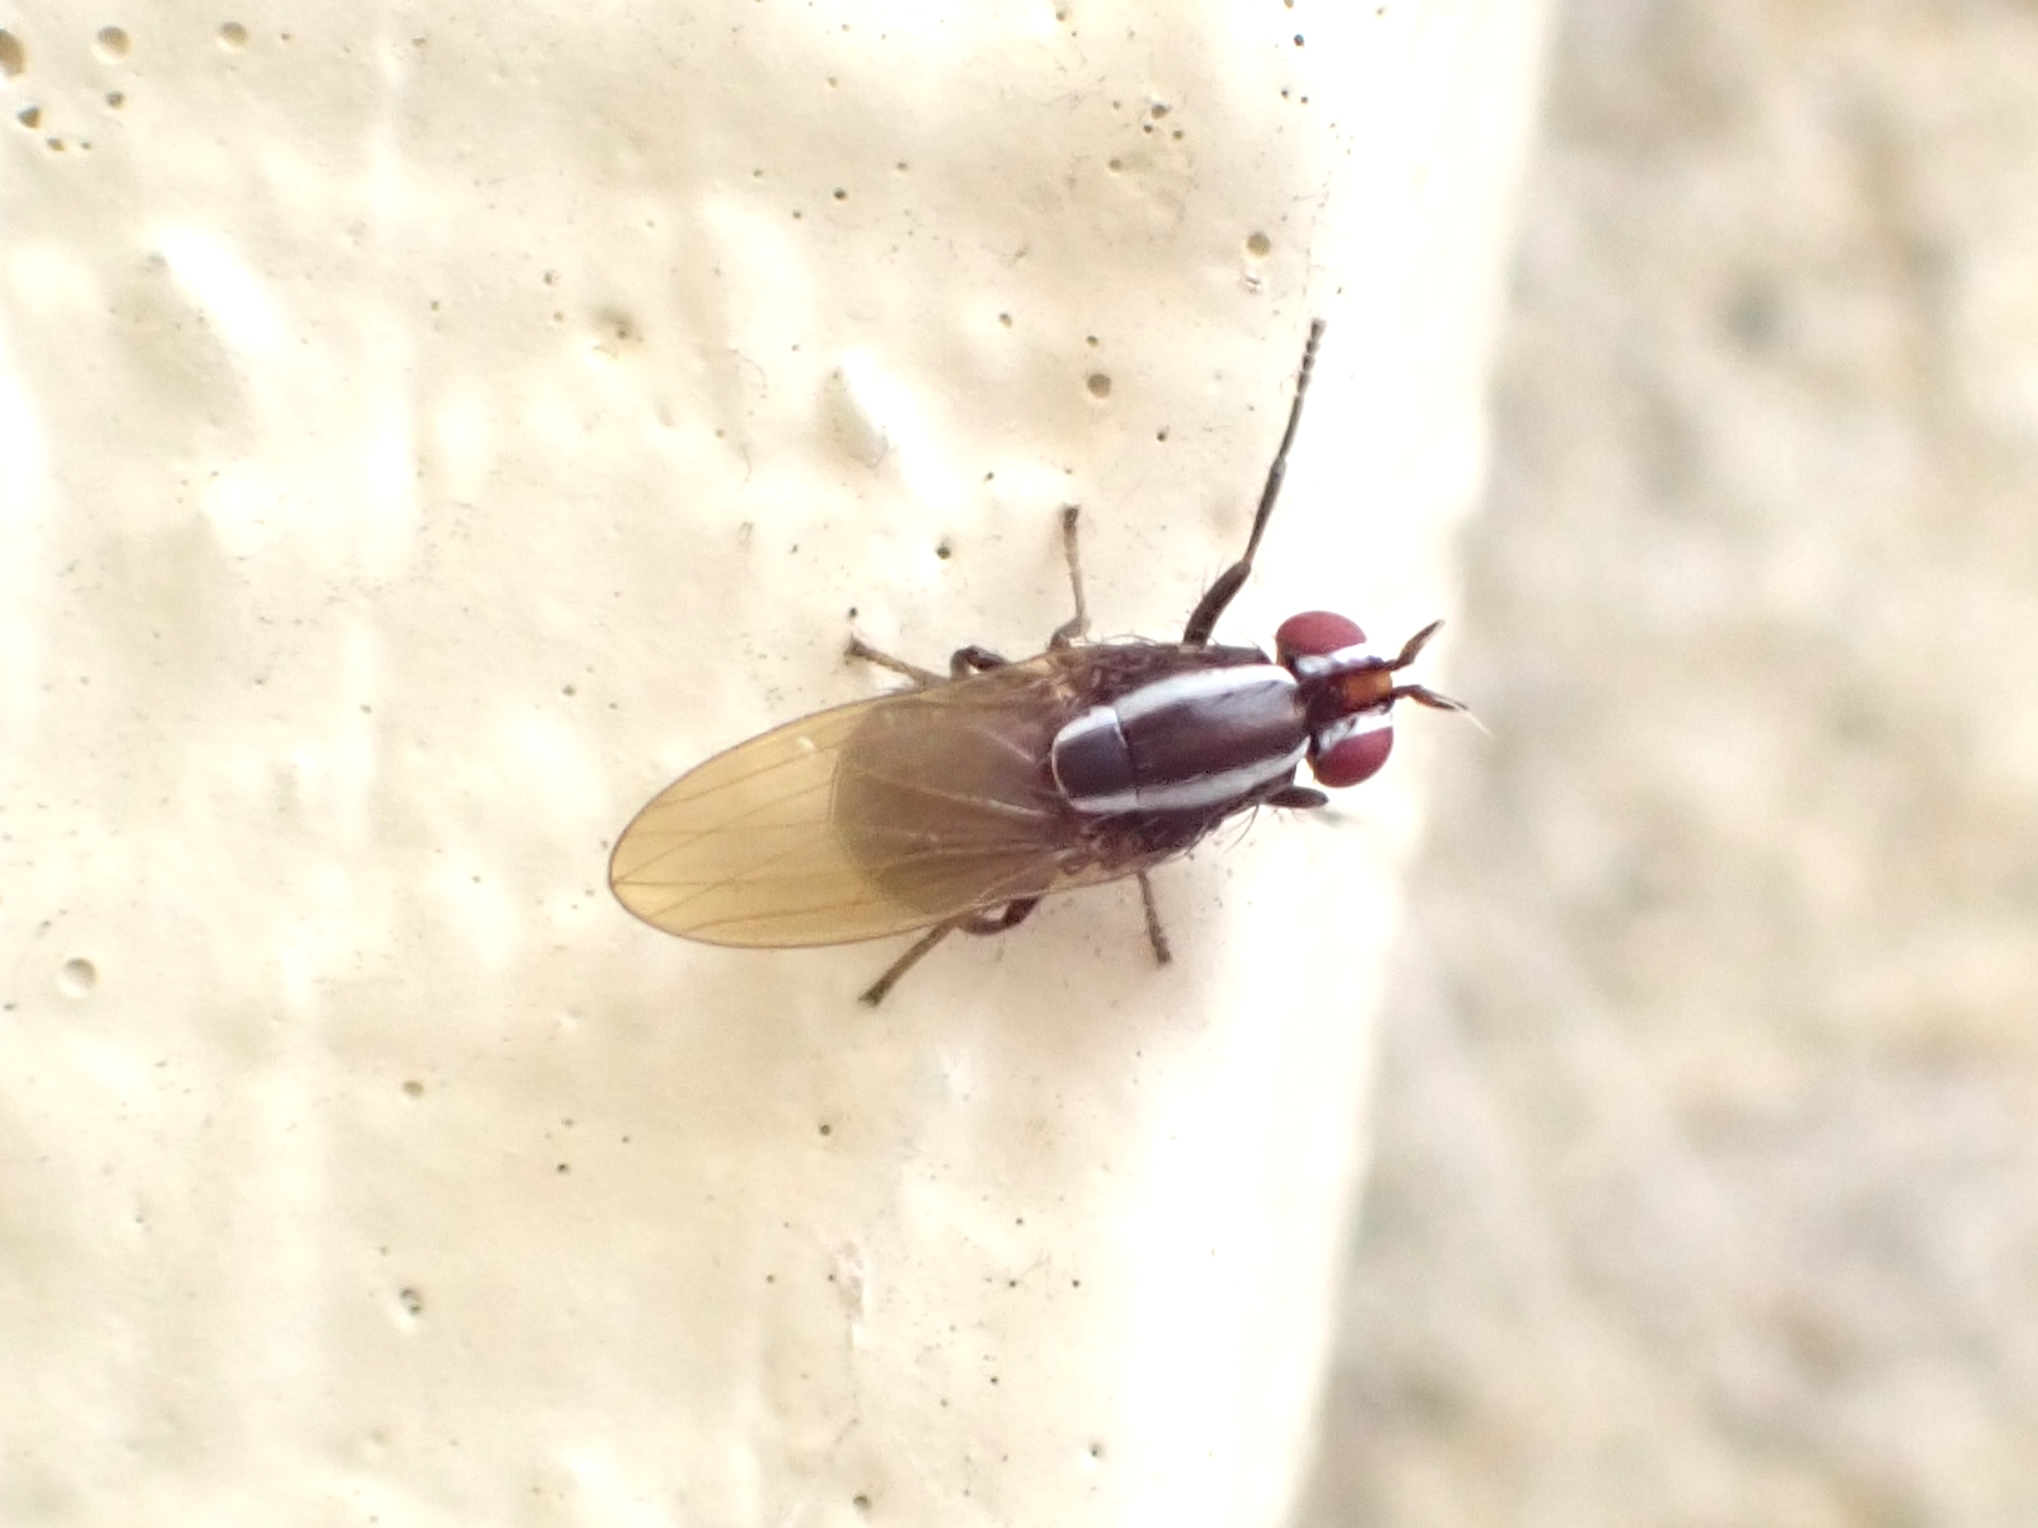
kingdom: Animalia
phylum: Arthropoda
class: Insecta
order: Diptera
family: Lauxaniidae
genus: Poecilohetaerella
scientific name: Poecilohetaerella dubiosa
